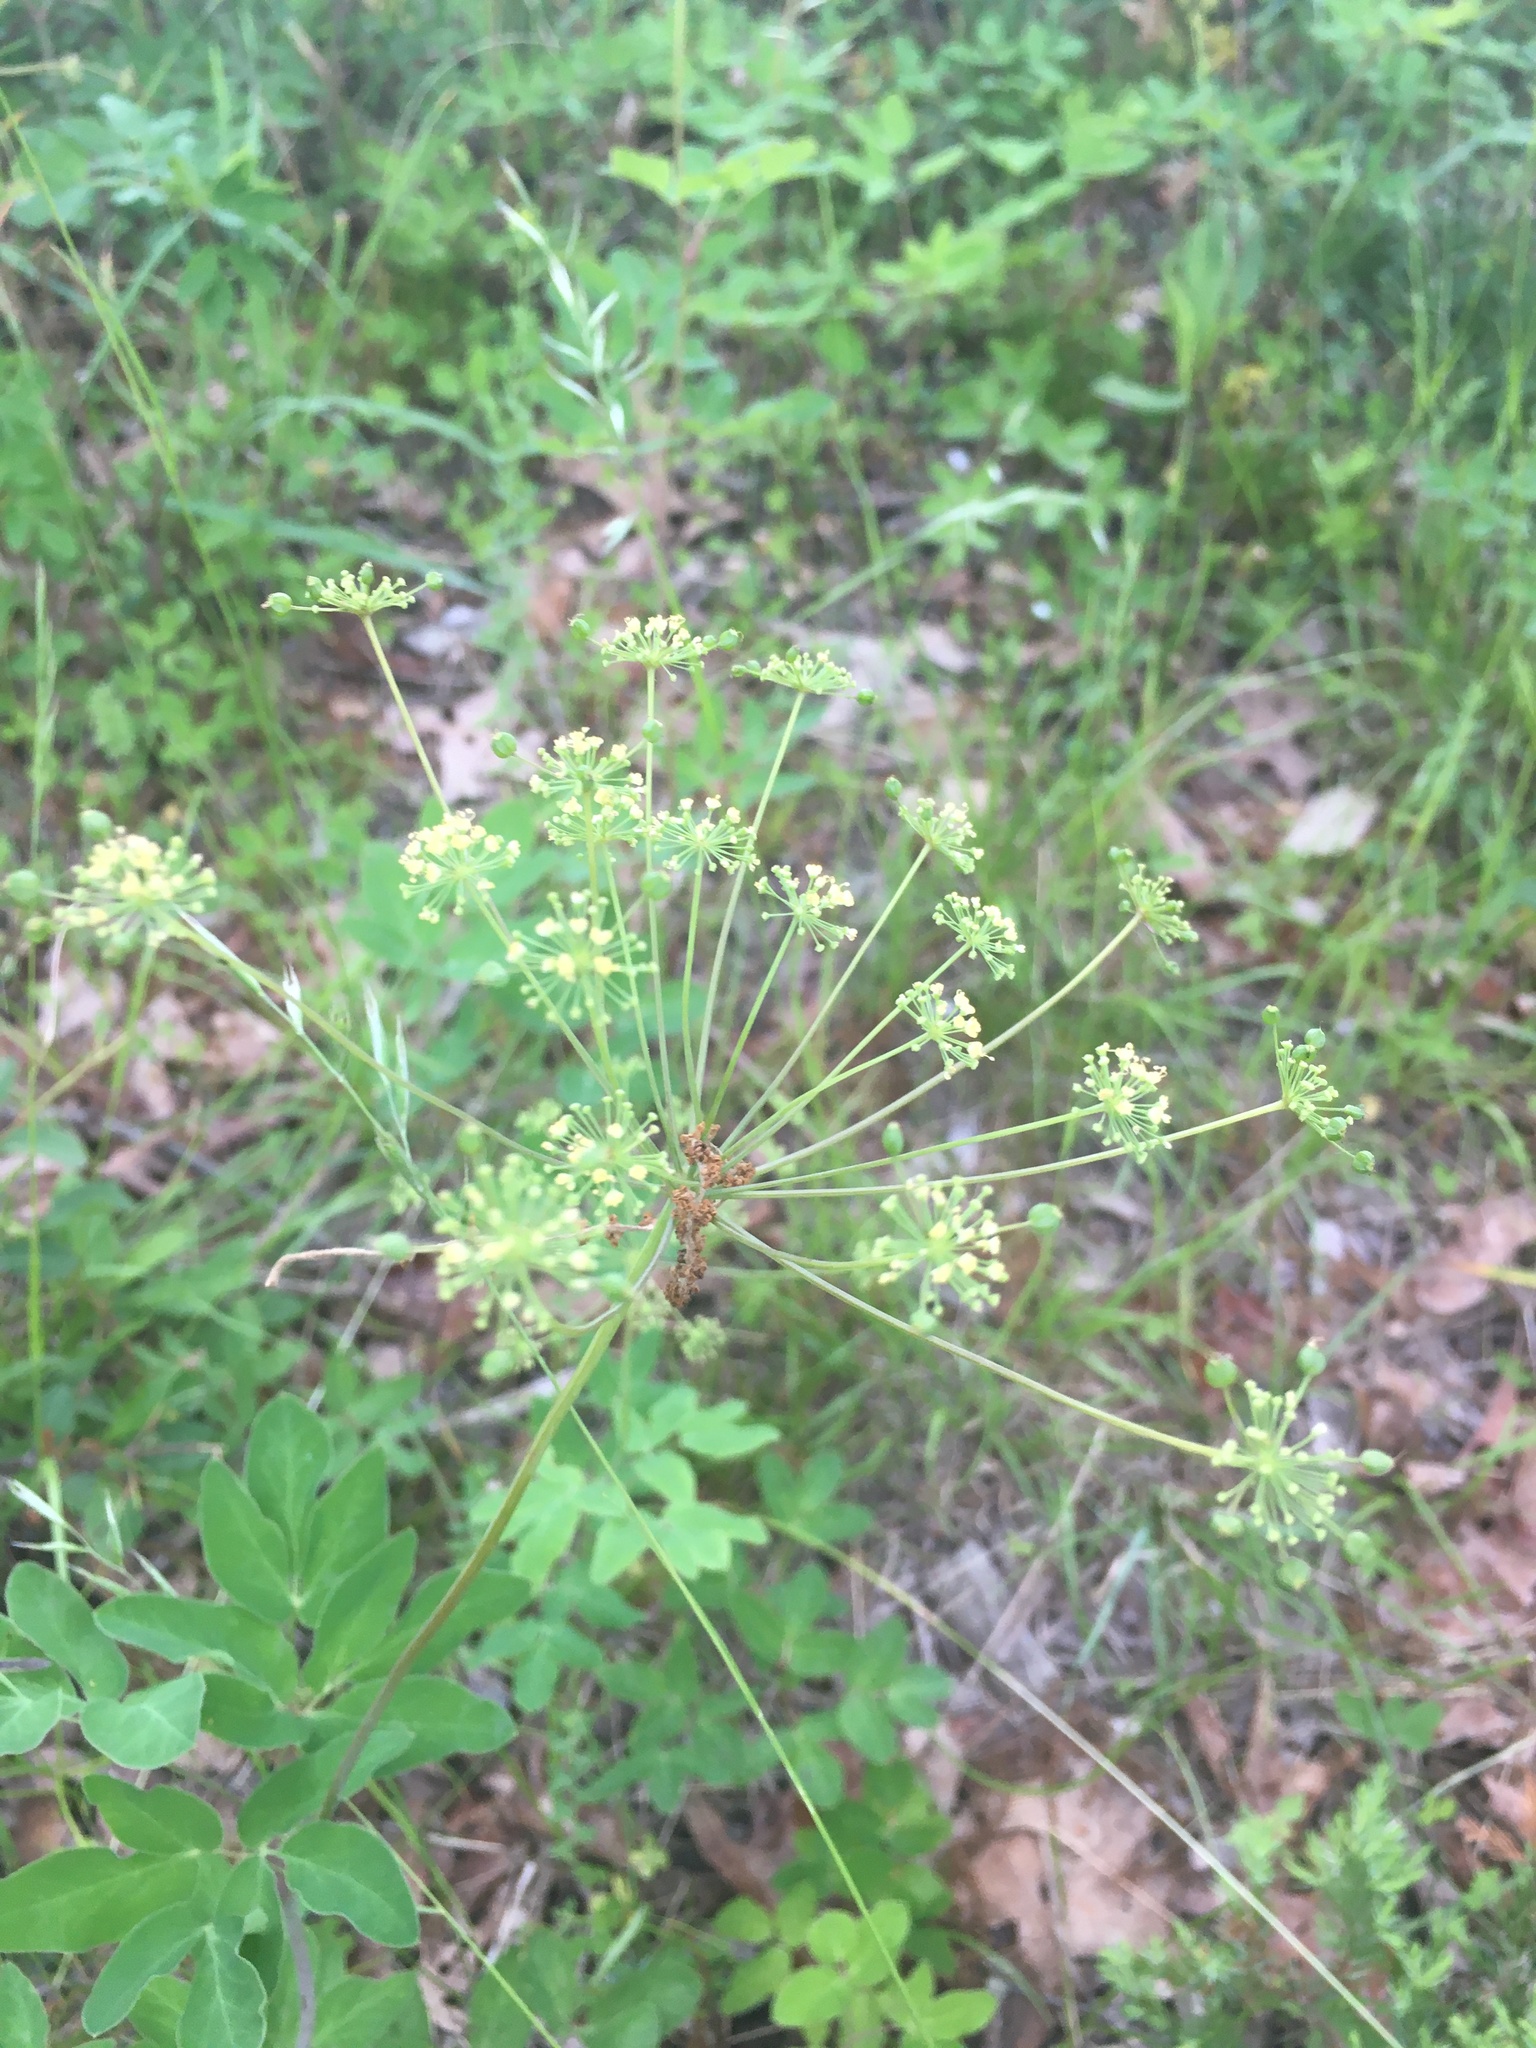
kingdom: Plantae
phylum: Tracheophyta
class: Magnoliopsida
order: Apiales
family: Apiaceae
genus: Taenidia
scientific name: Taenidia integerrima
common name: Golden alexander
